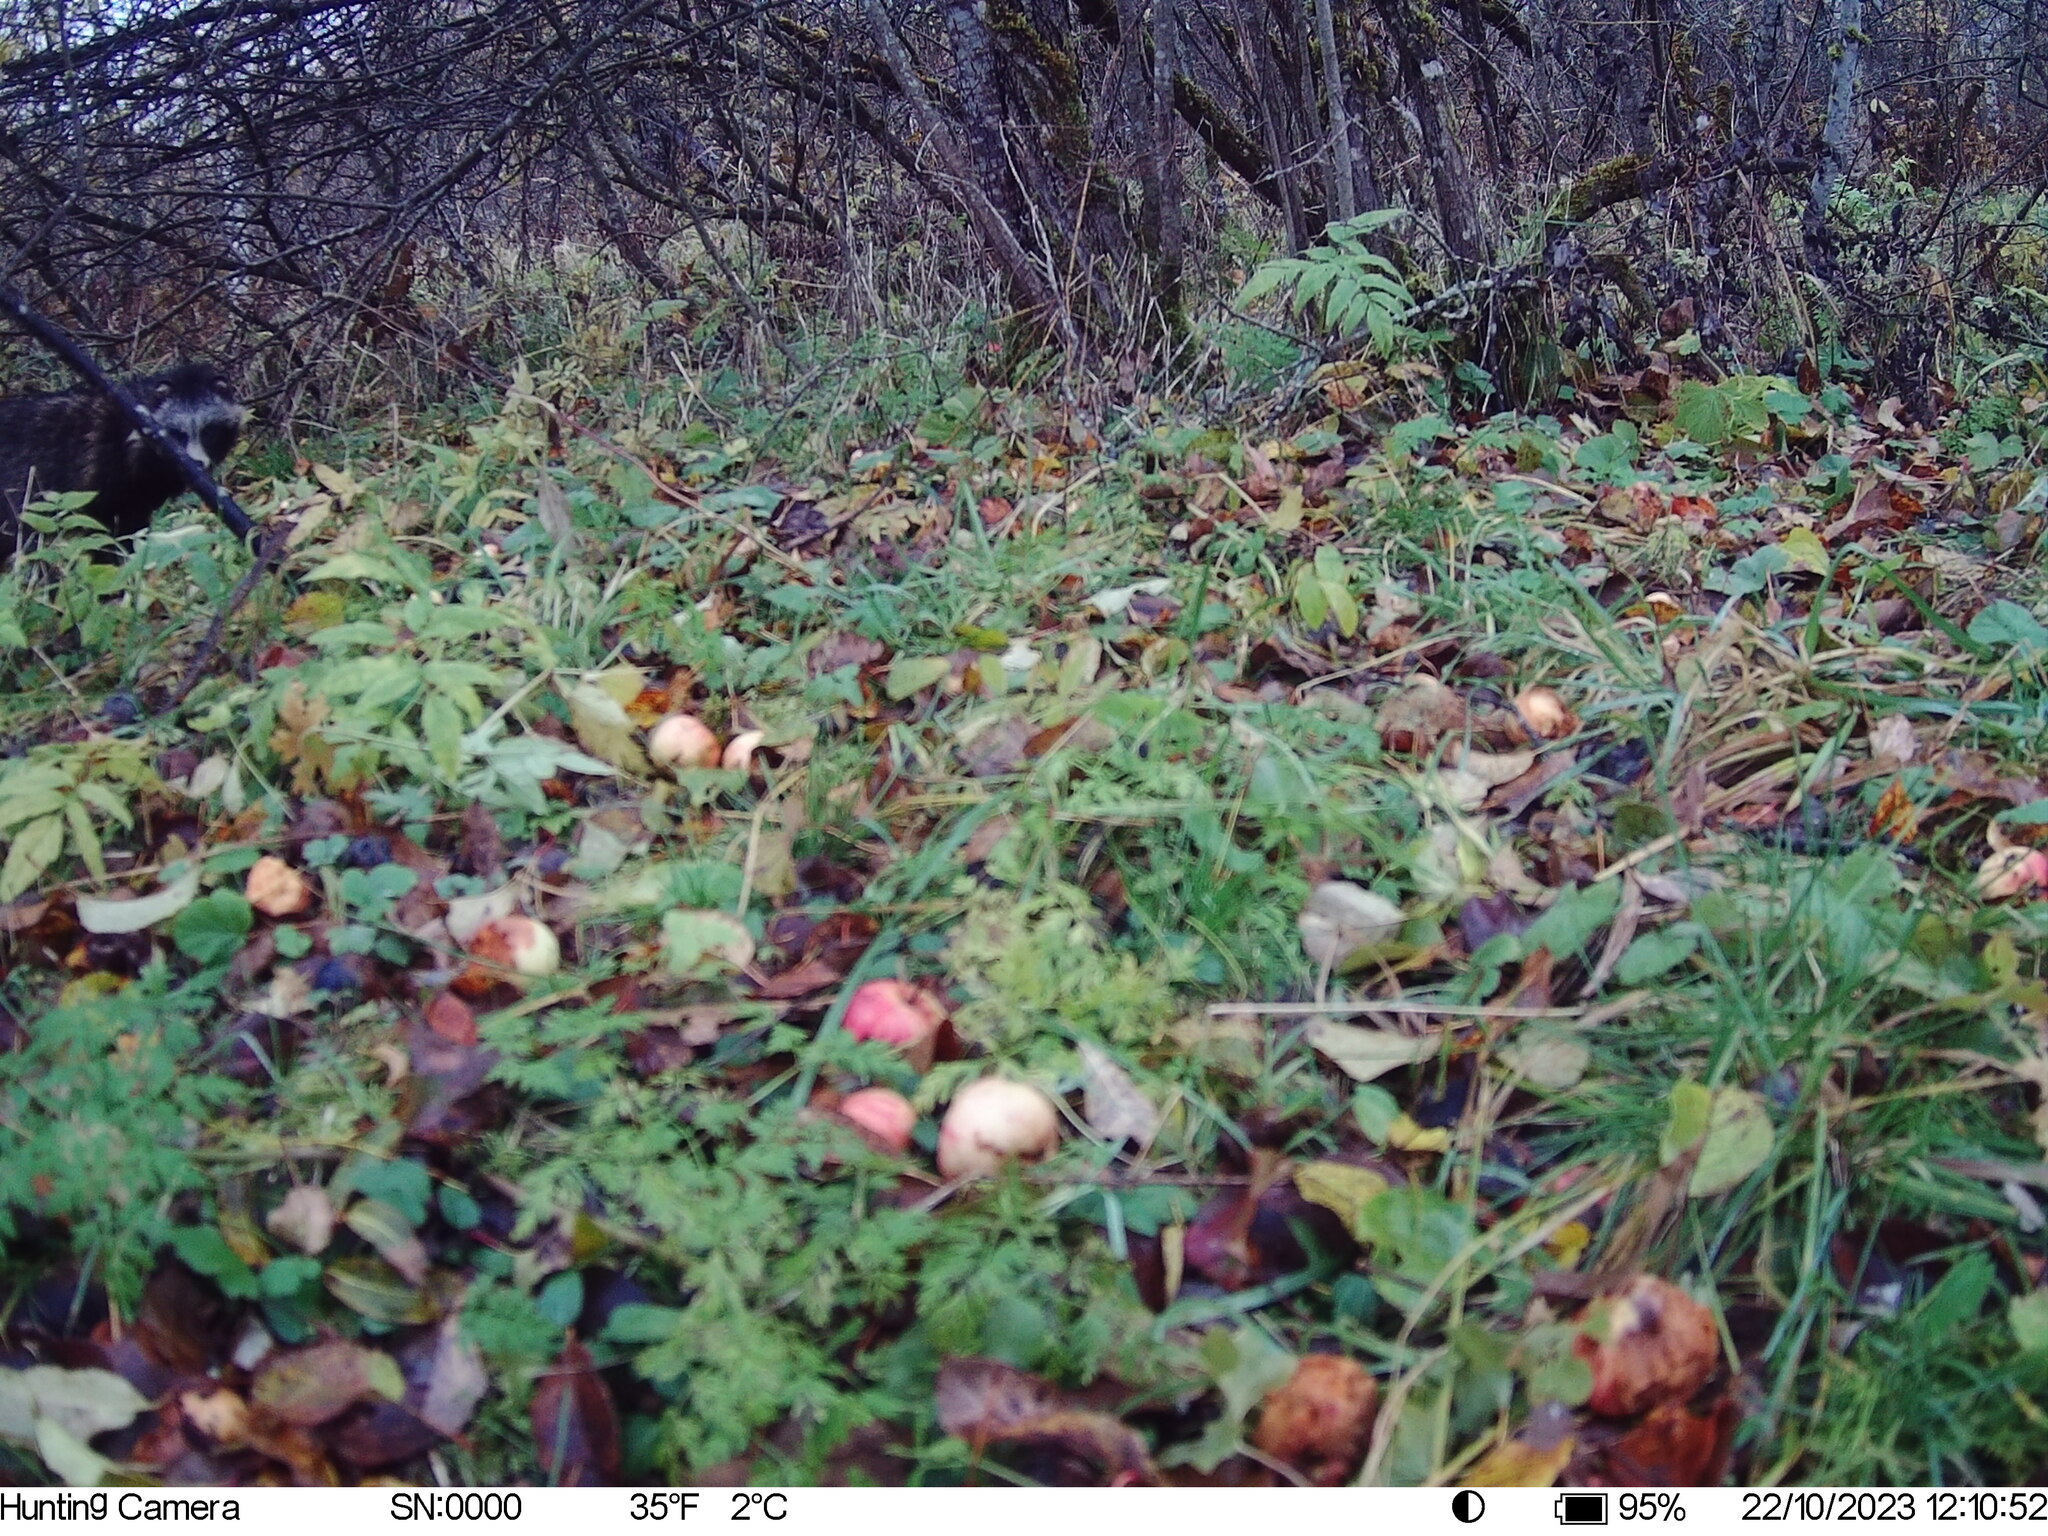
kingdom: Animalia
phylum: Chordata
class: Mammalia
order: Carnivora
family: Canidae
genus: Nyctereutes
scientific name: Nyctereutes procyonoides
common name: Raccoon dog
